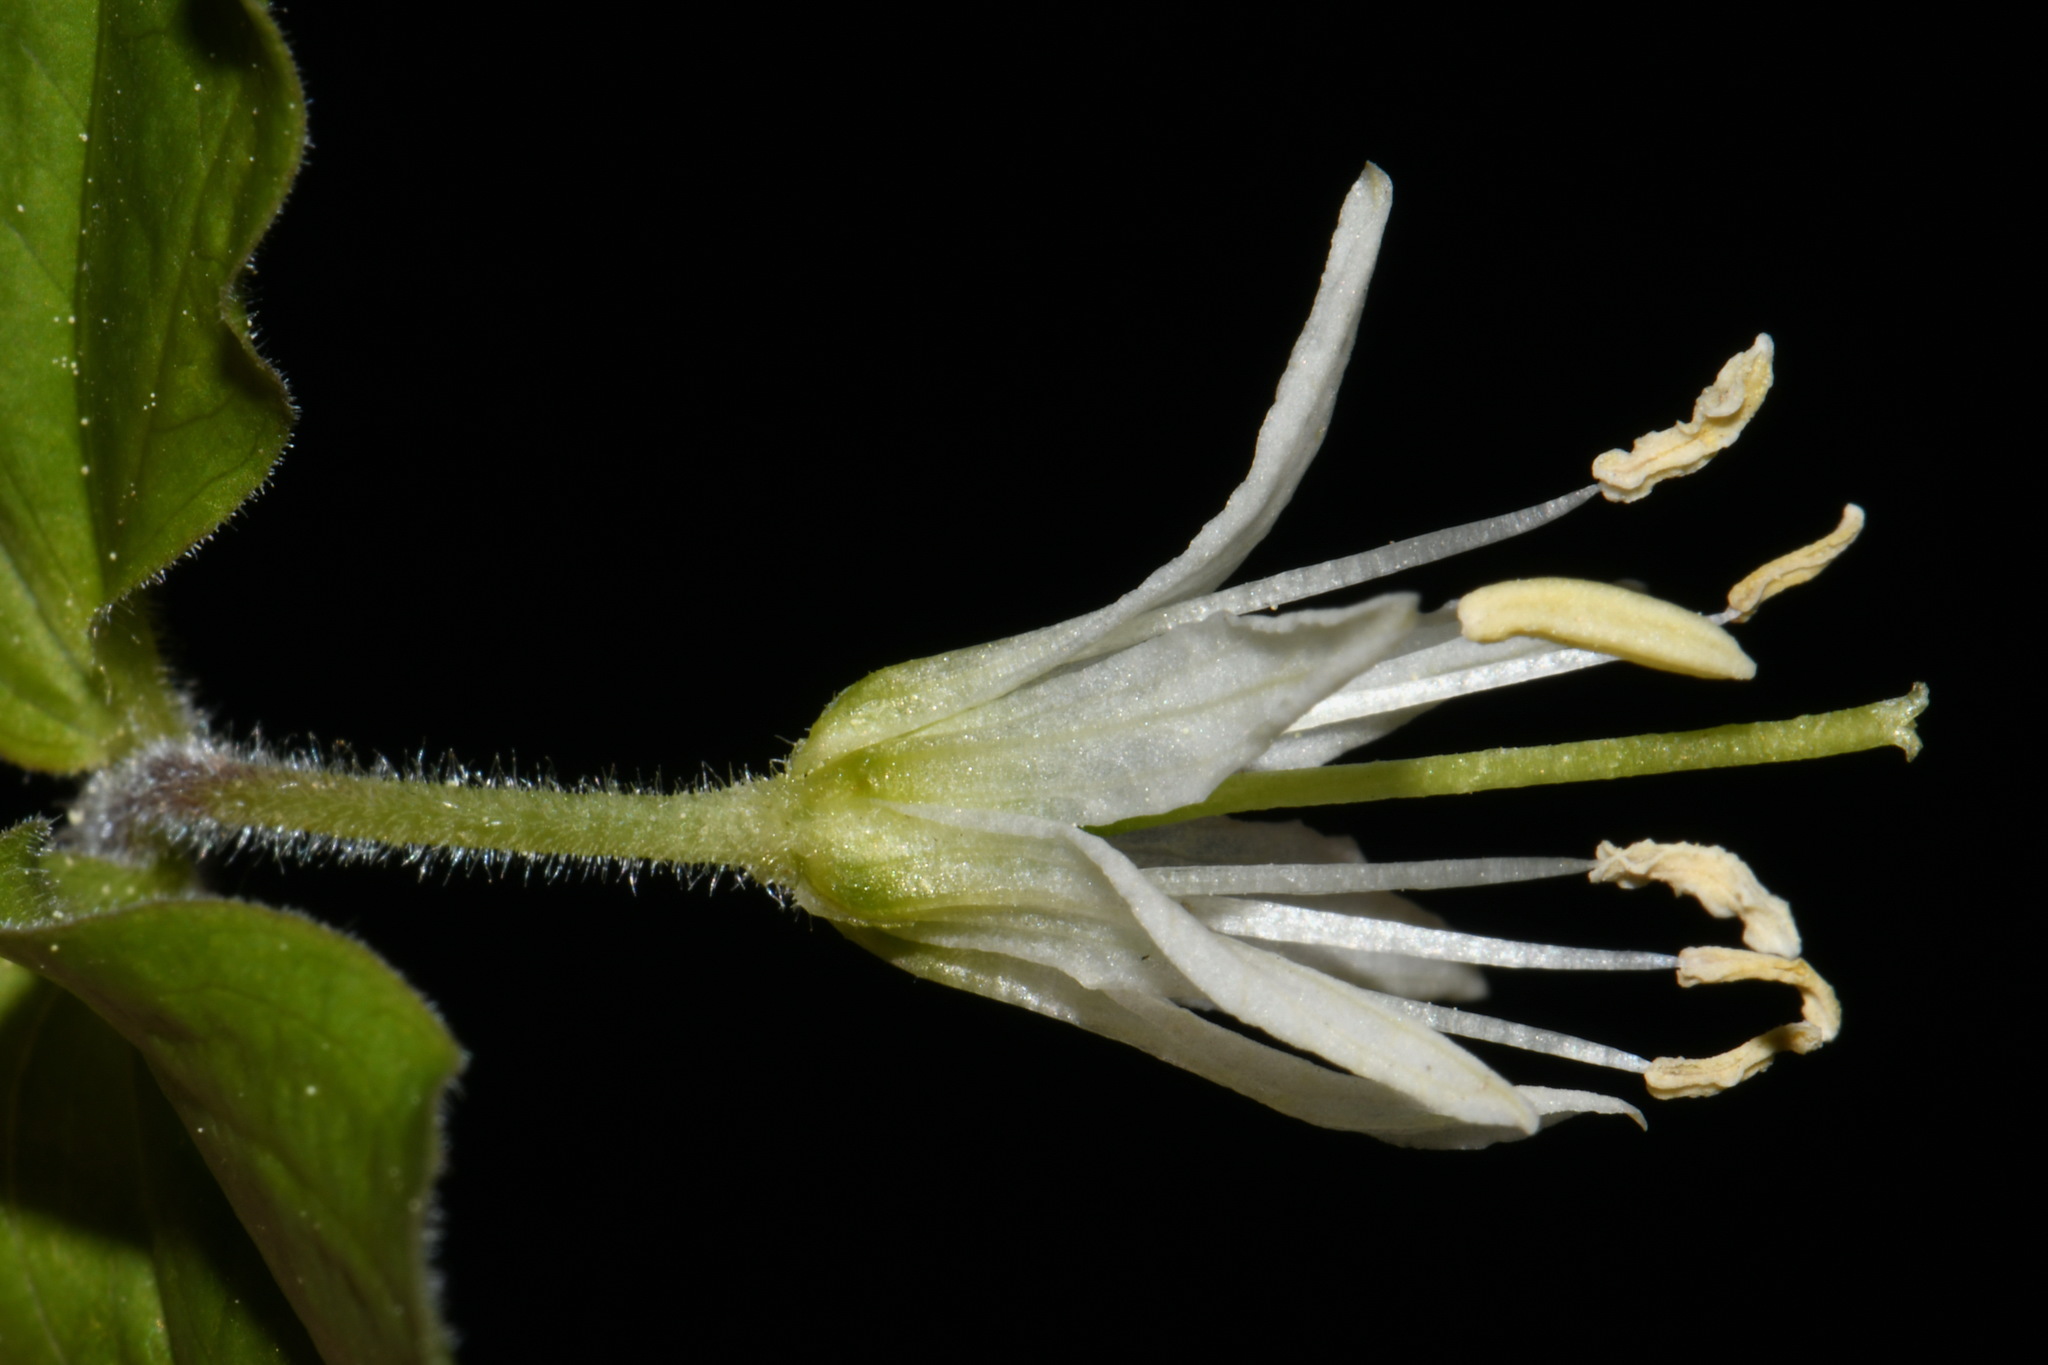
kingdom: Plantae
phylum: Tracheophyta
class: Liliopsida
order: Liliales
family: Liliaceae
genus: Prosartes
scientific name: Prosartes trachycarpa
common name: Rough-fruit fairy-bells
